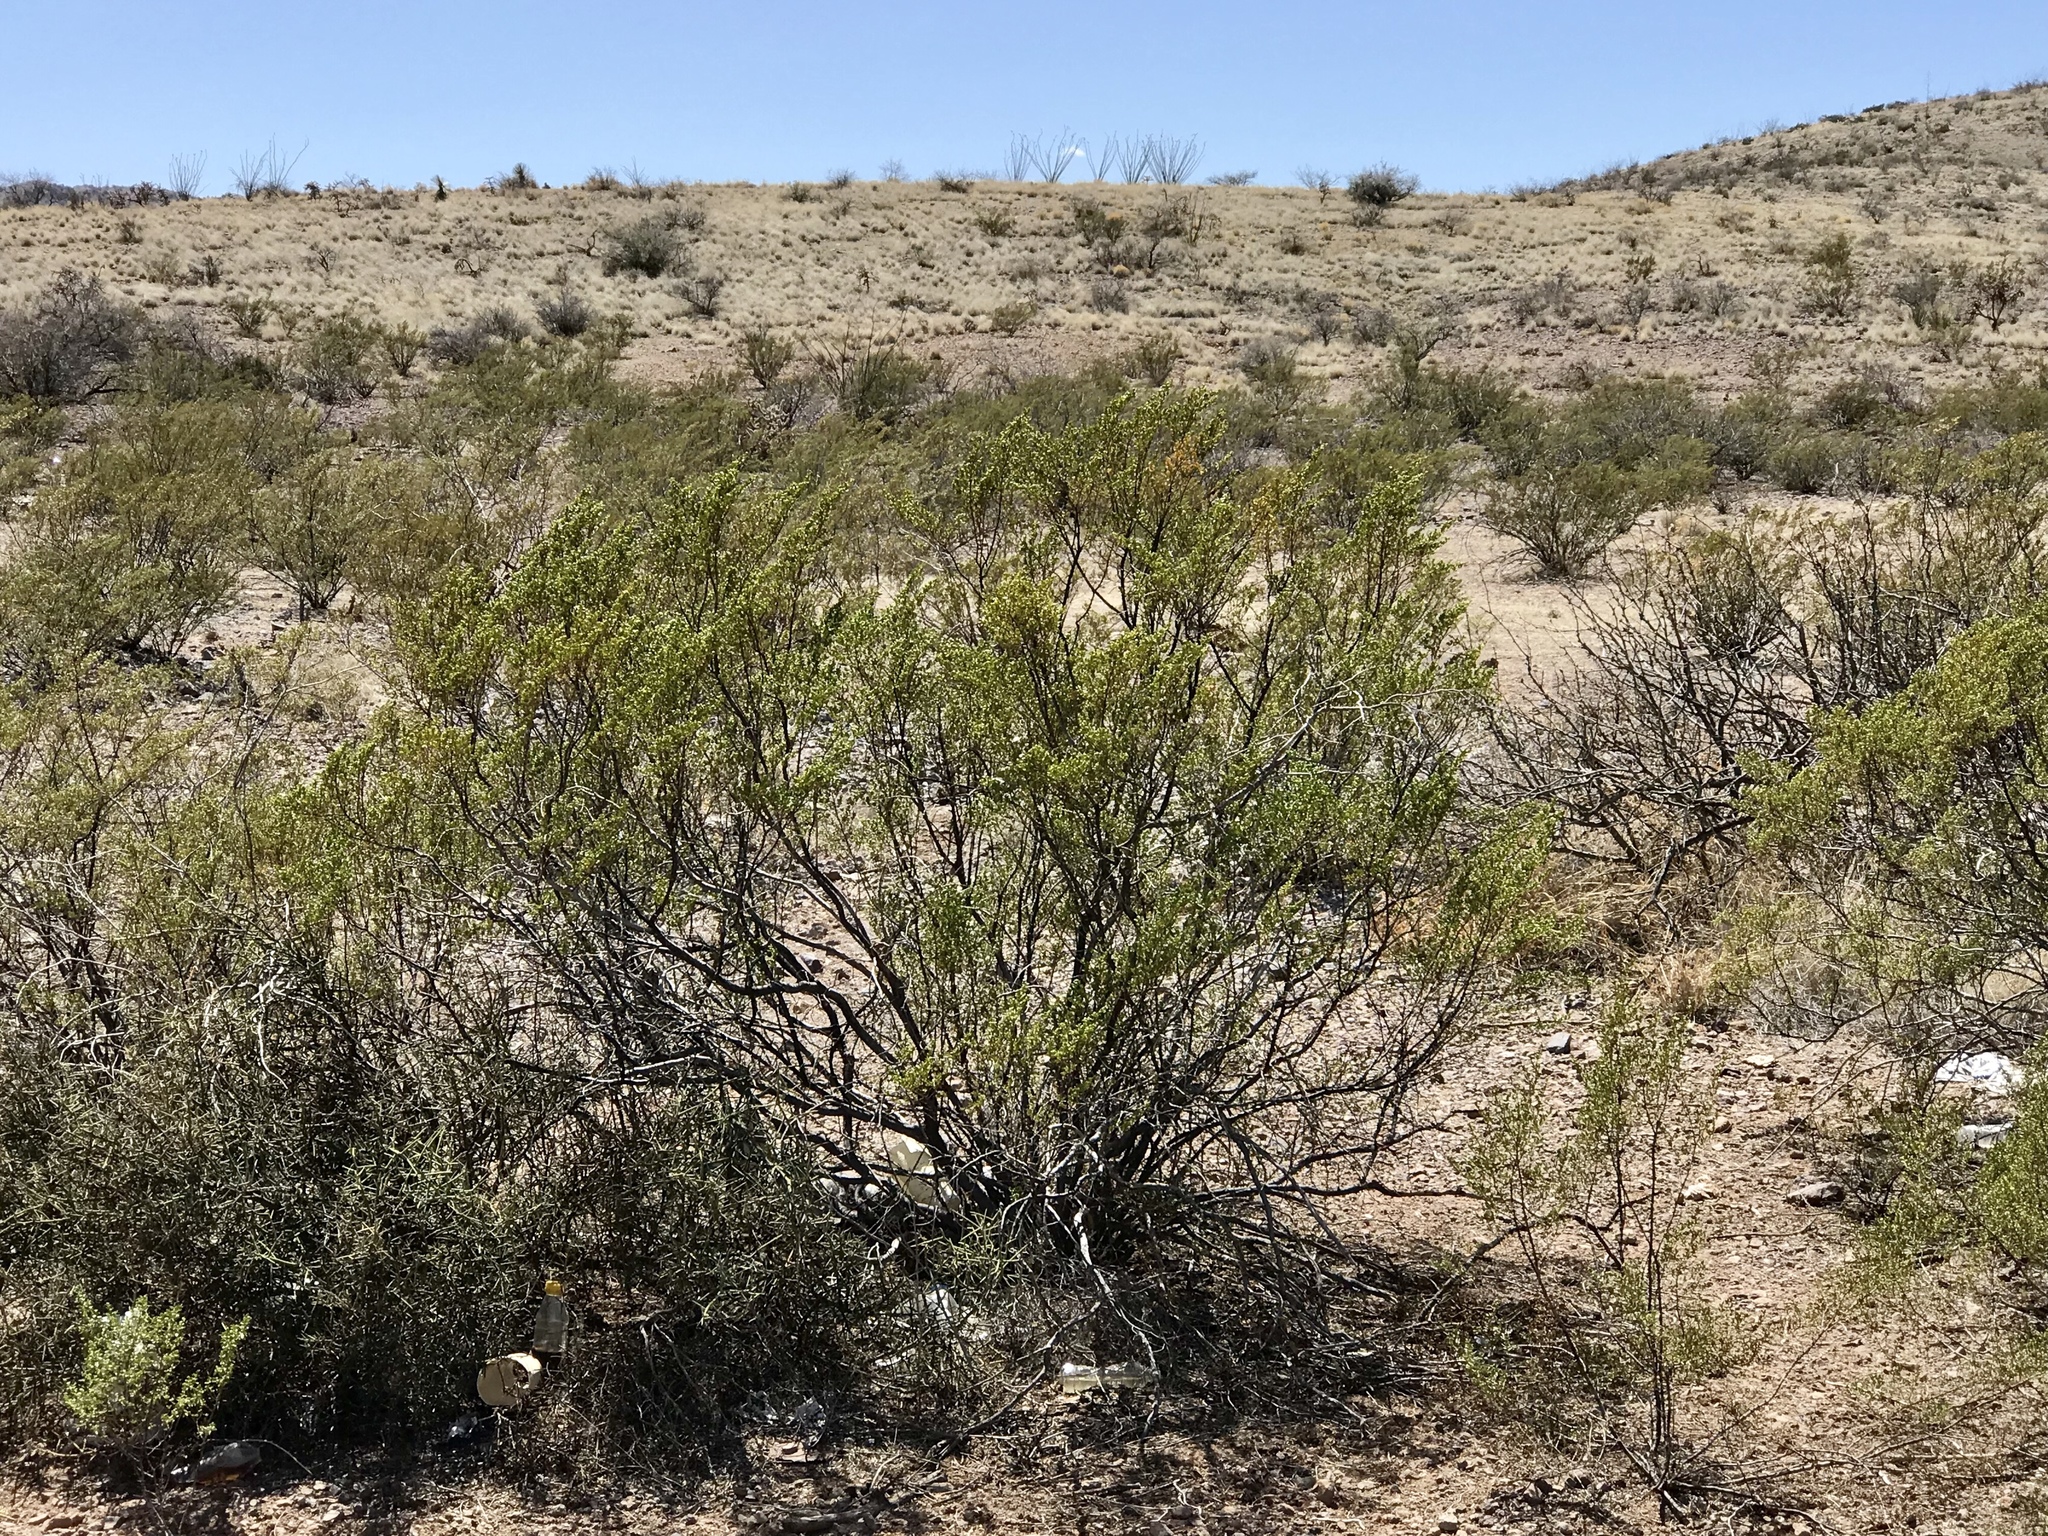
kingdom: Plantae
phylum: Tracheophyta
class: Magnoliopsida
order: Zygophyllales
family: Zygophyllaceae
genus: Larrea
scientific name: Larrea tridentata
